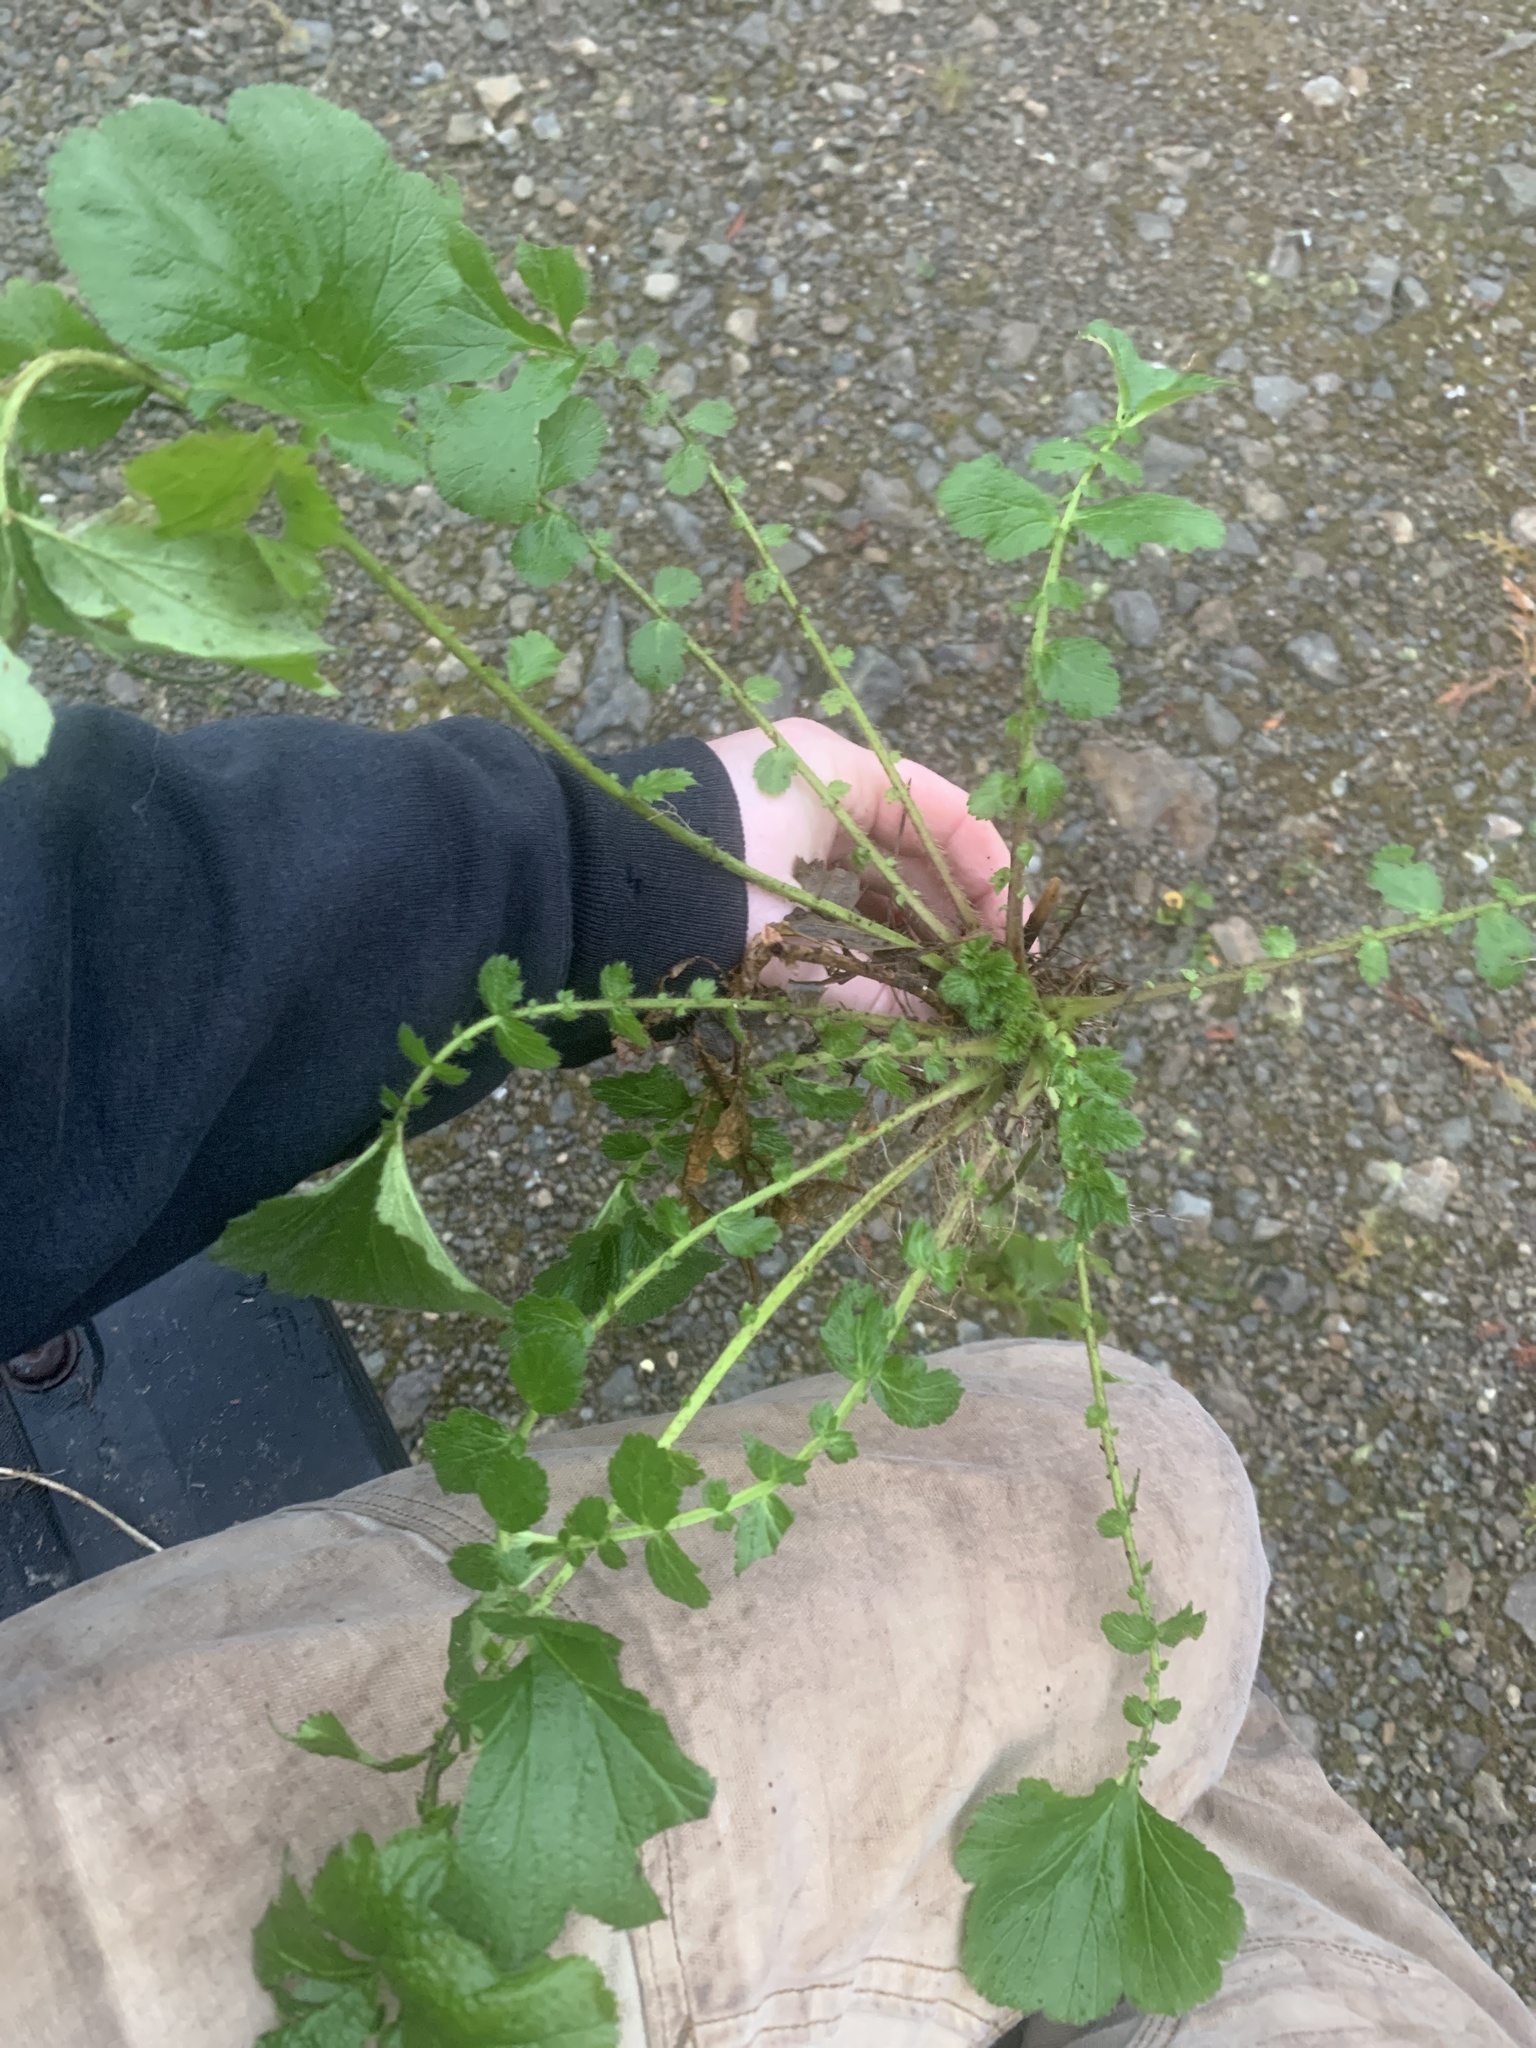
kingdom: Plantae
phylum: Tracheophyta
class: Magnoliopsida
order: Rosales
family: Rosaceae
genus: Geum
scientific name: Geum macrophyllum
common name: Large-leaved avens
